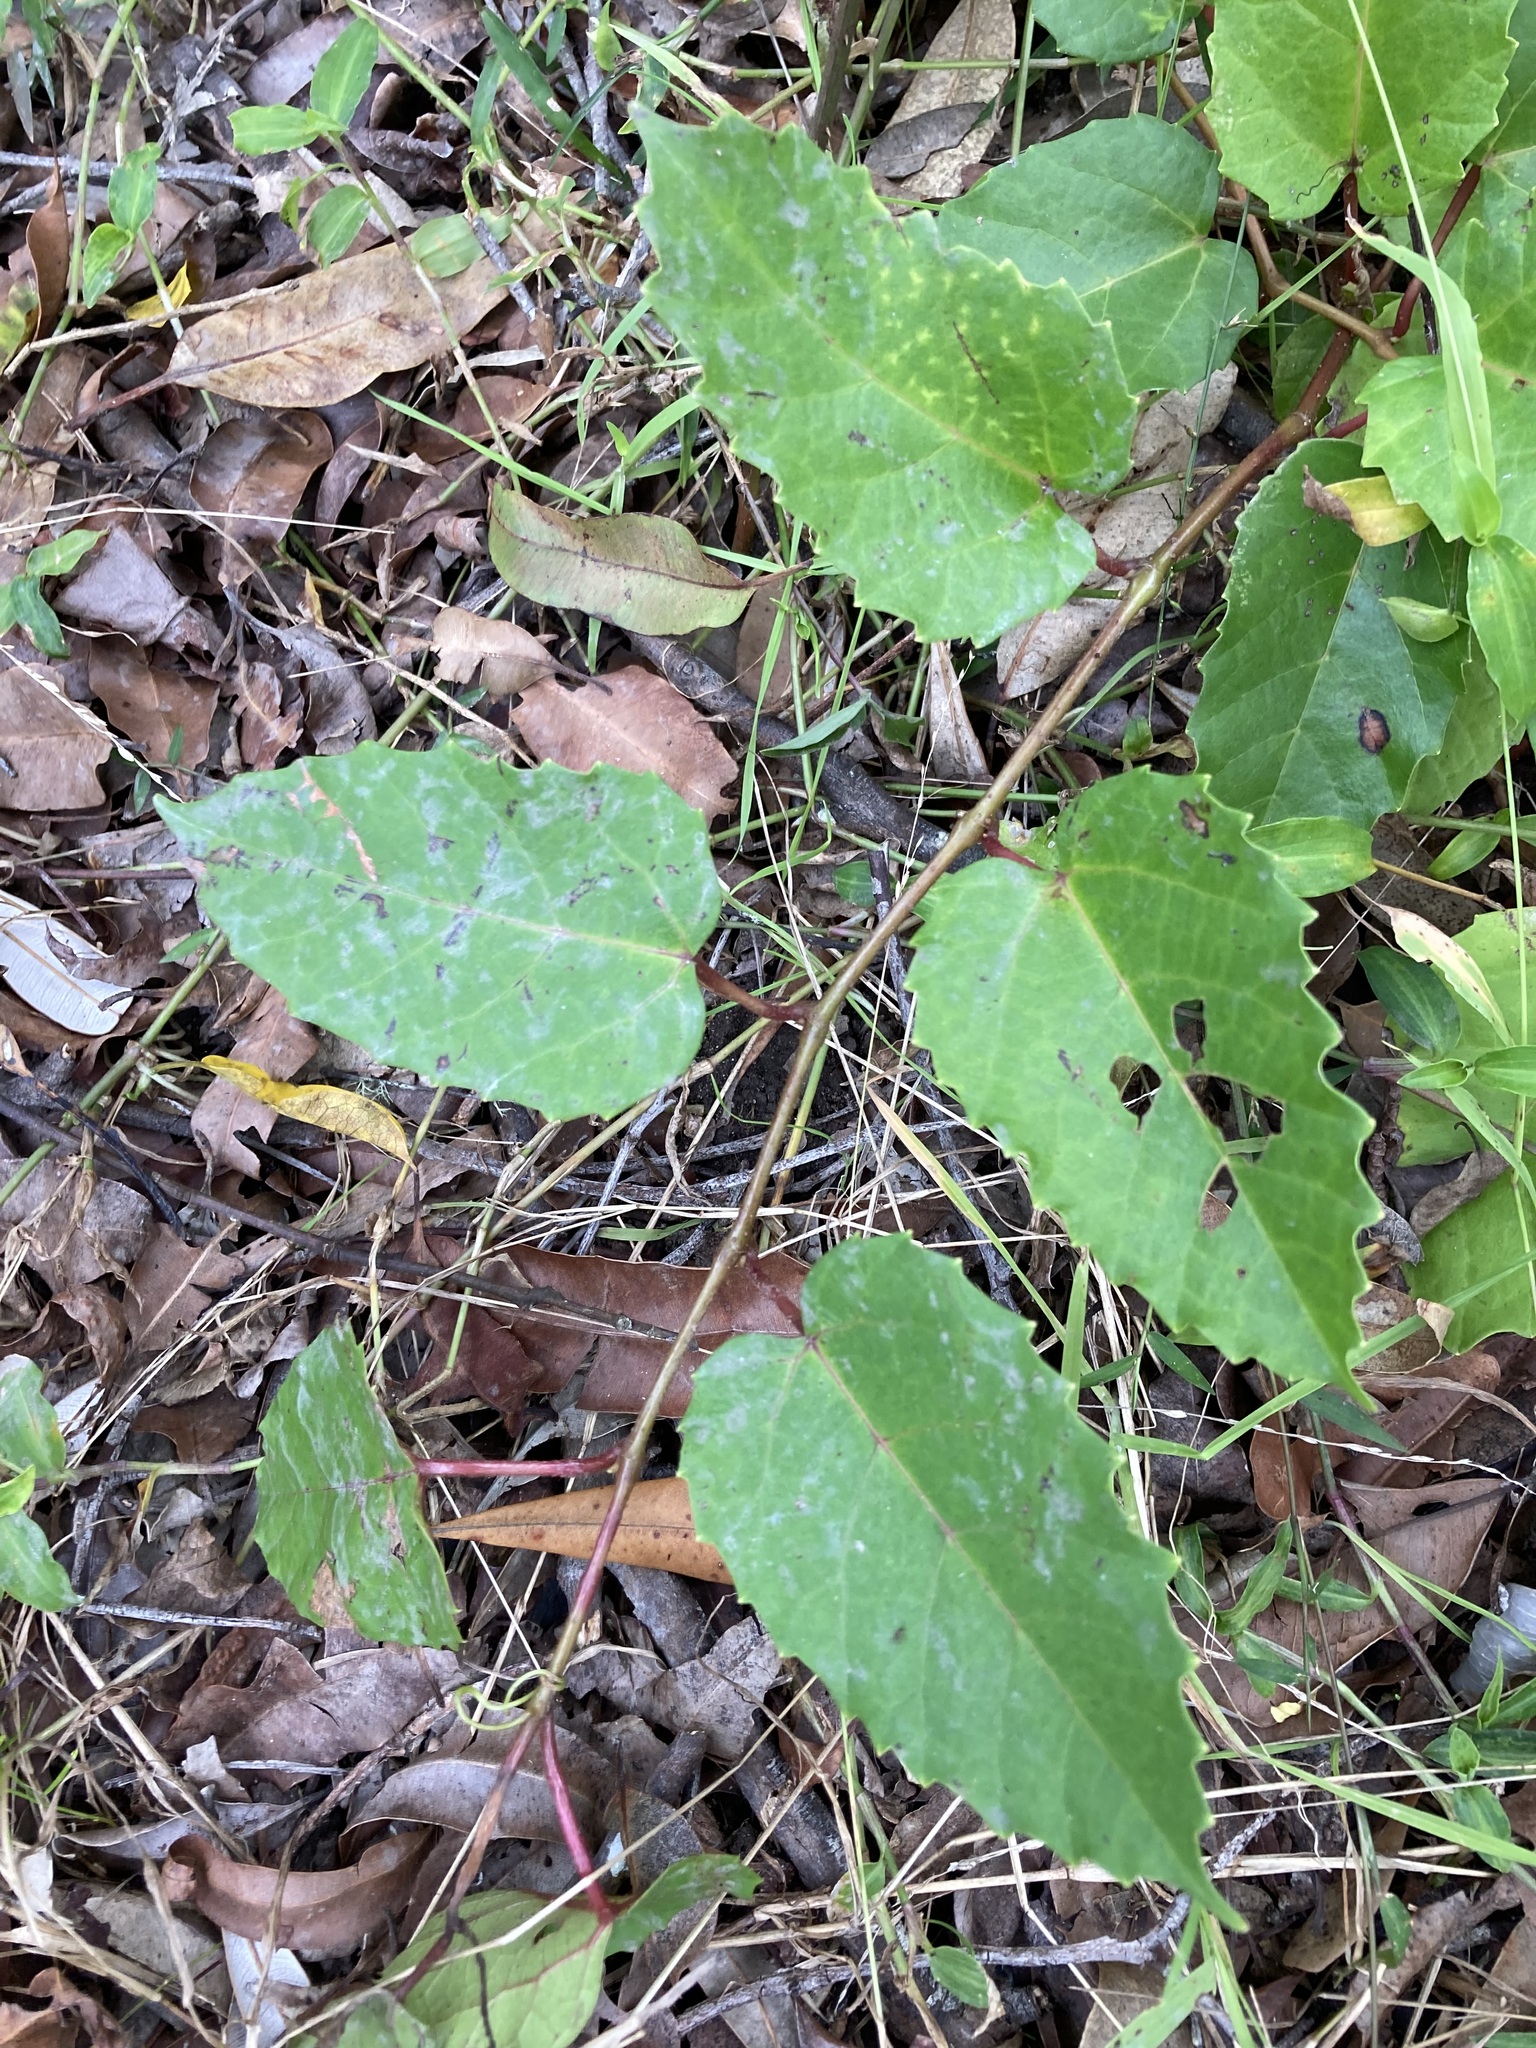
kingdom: Plantae
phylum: Tracheophyta
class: Magnoliopsida
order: Vitales
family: Vitaceae
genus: Cissus
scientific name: Cissus antarctica
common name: Kangaroo vine
